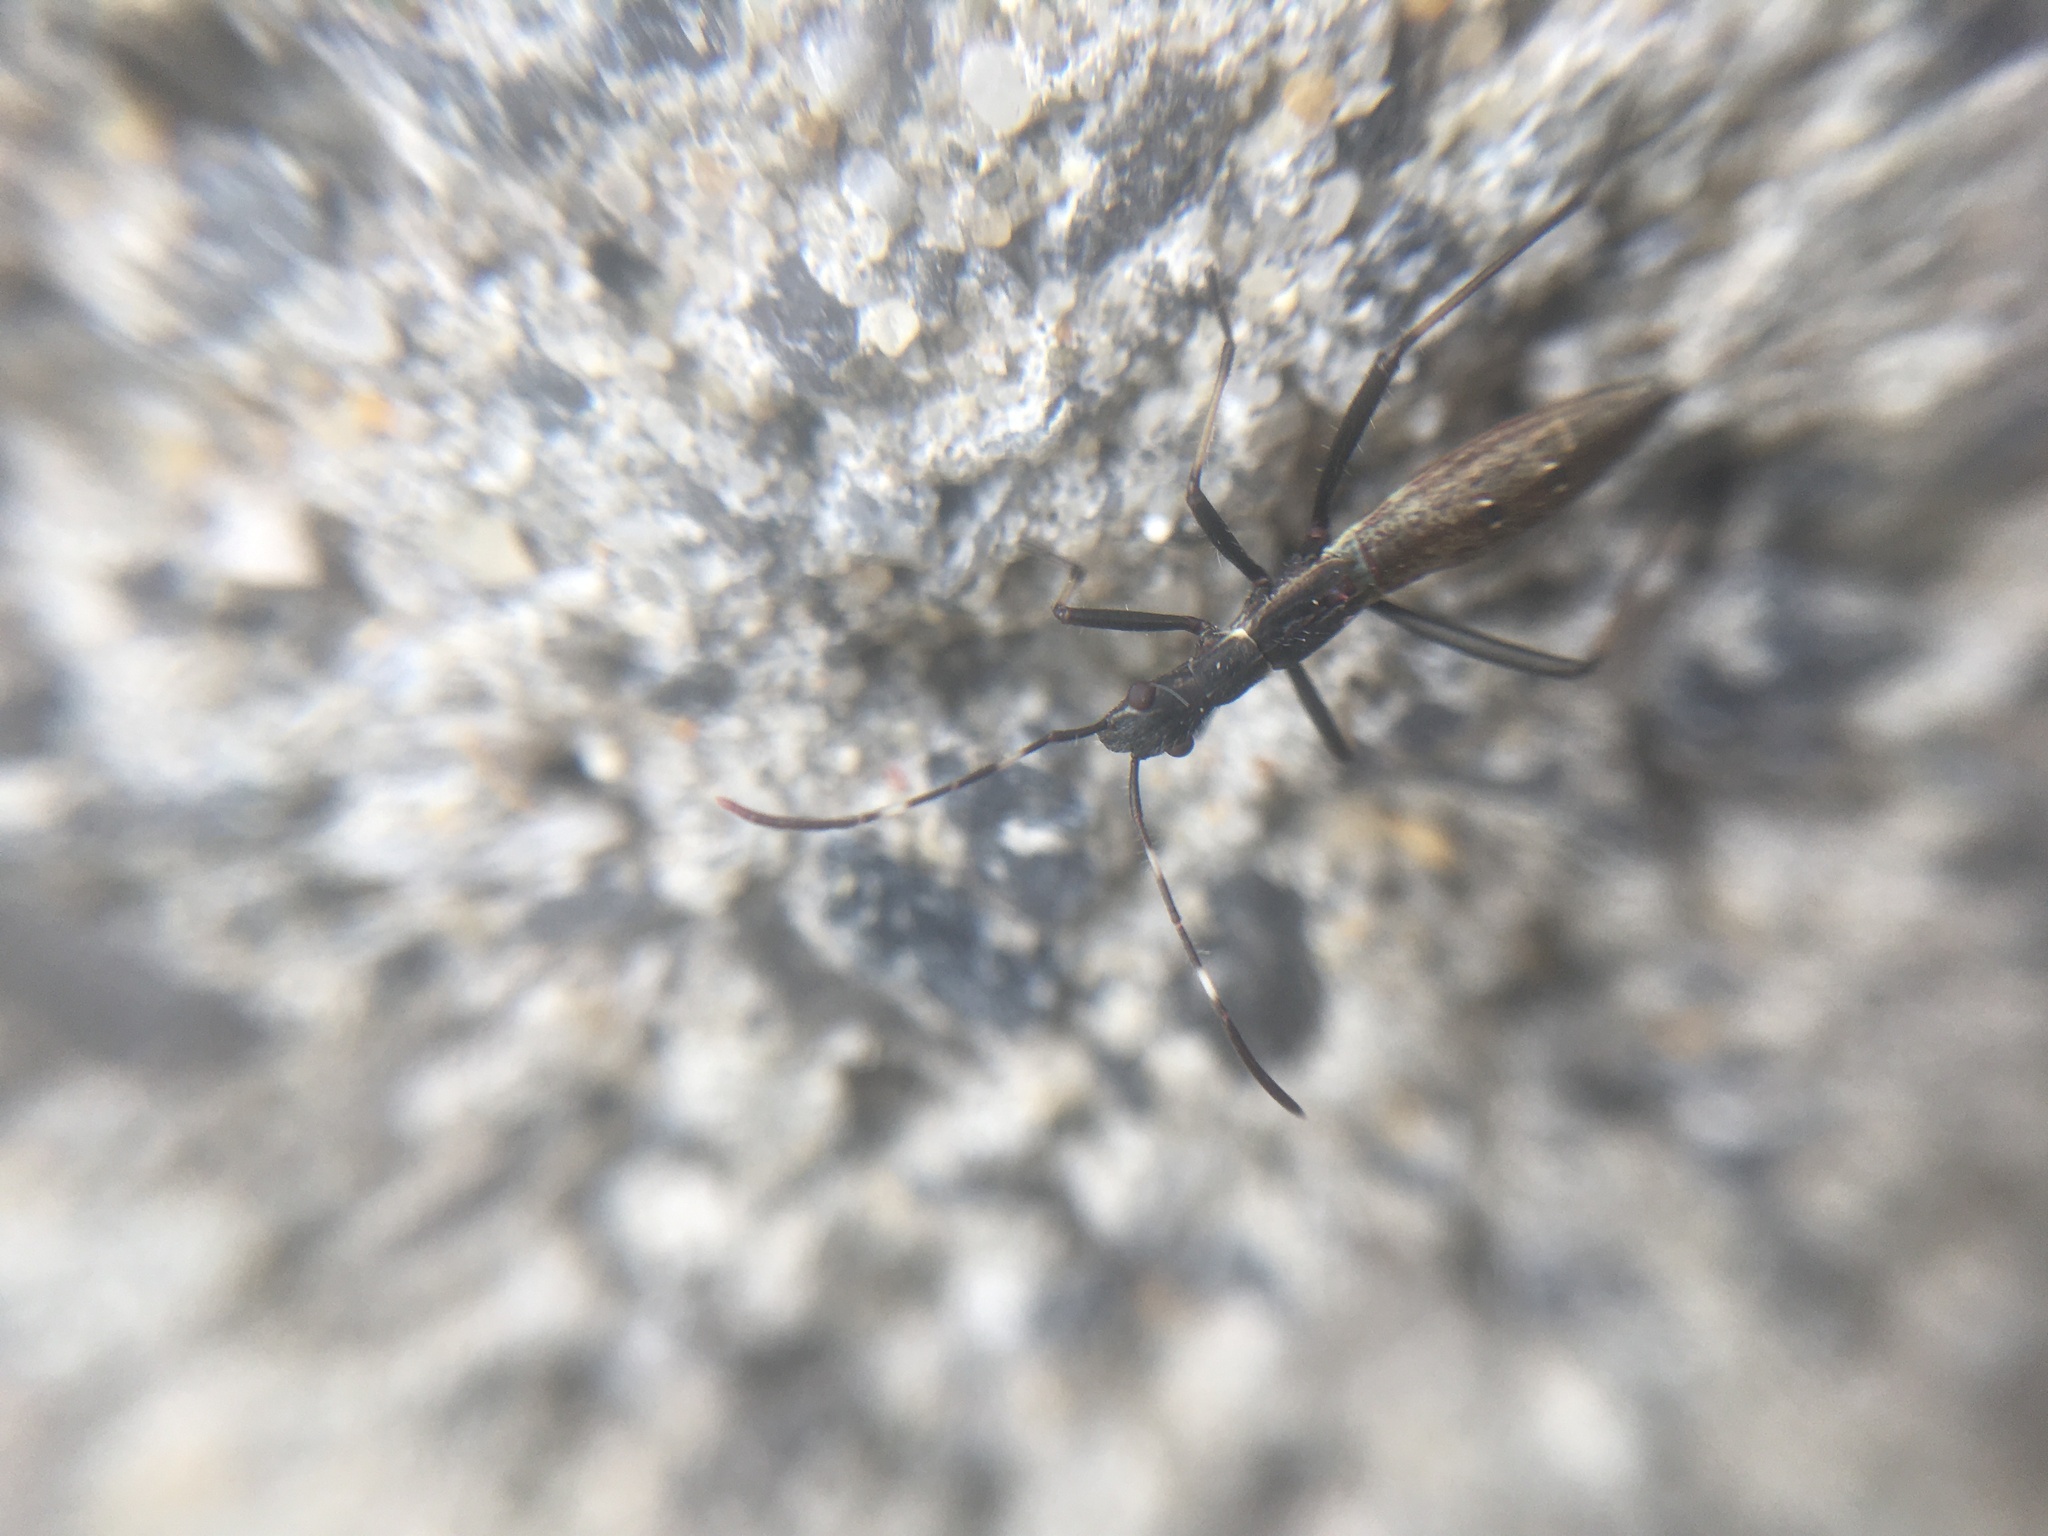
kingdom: Animalia
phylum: Arthropoda
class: Insecta
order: Hemiptera
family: Alydidae
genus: Micrelytra
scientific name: Micrelytra fossularum
